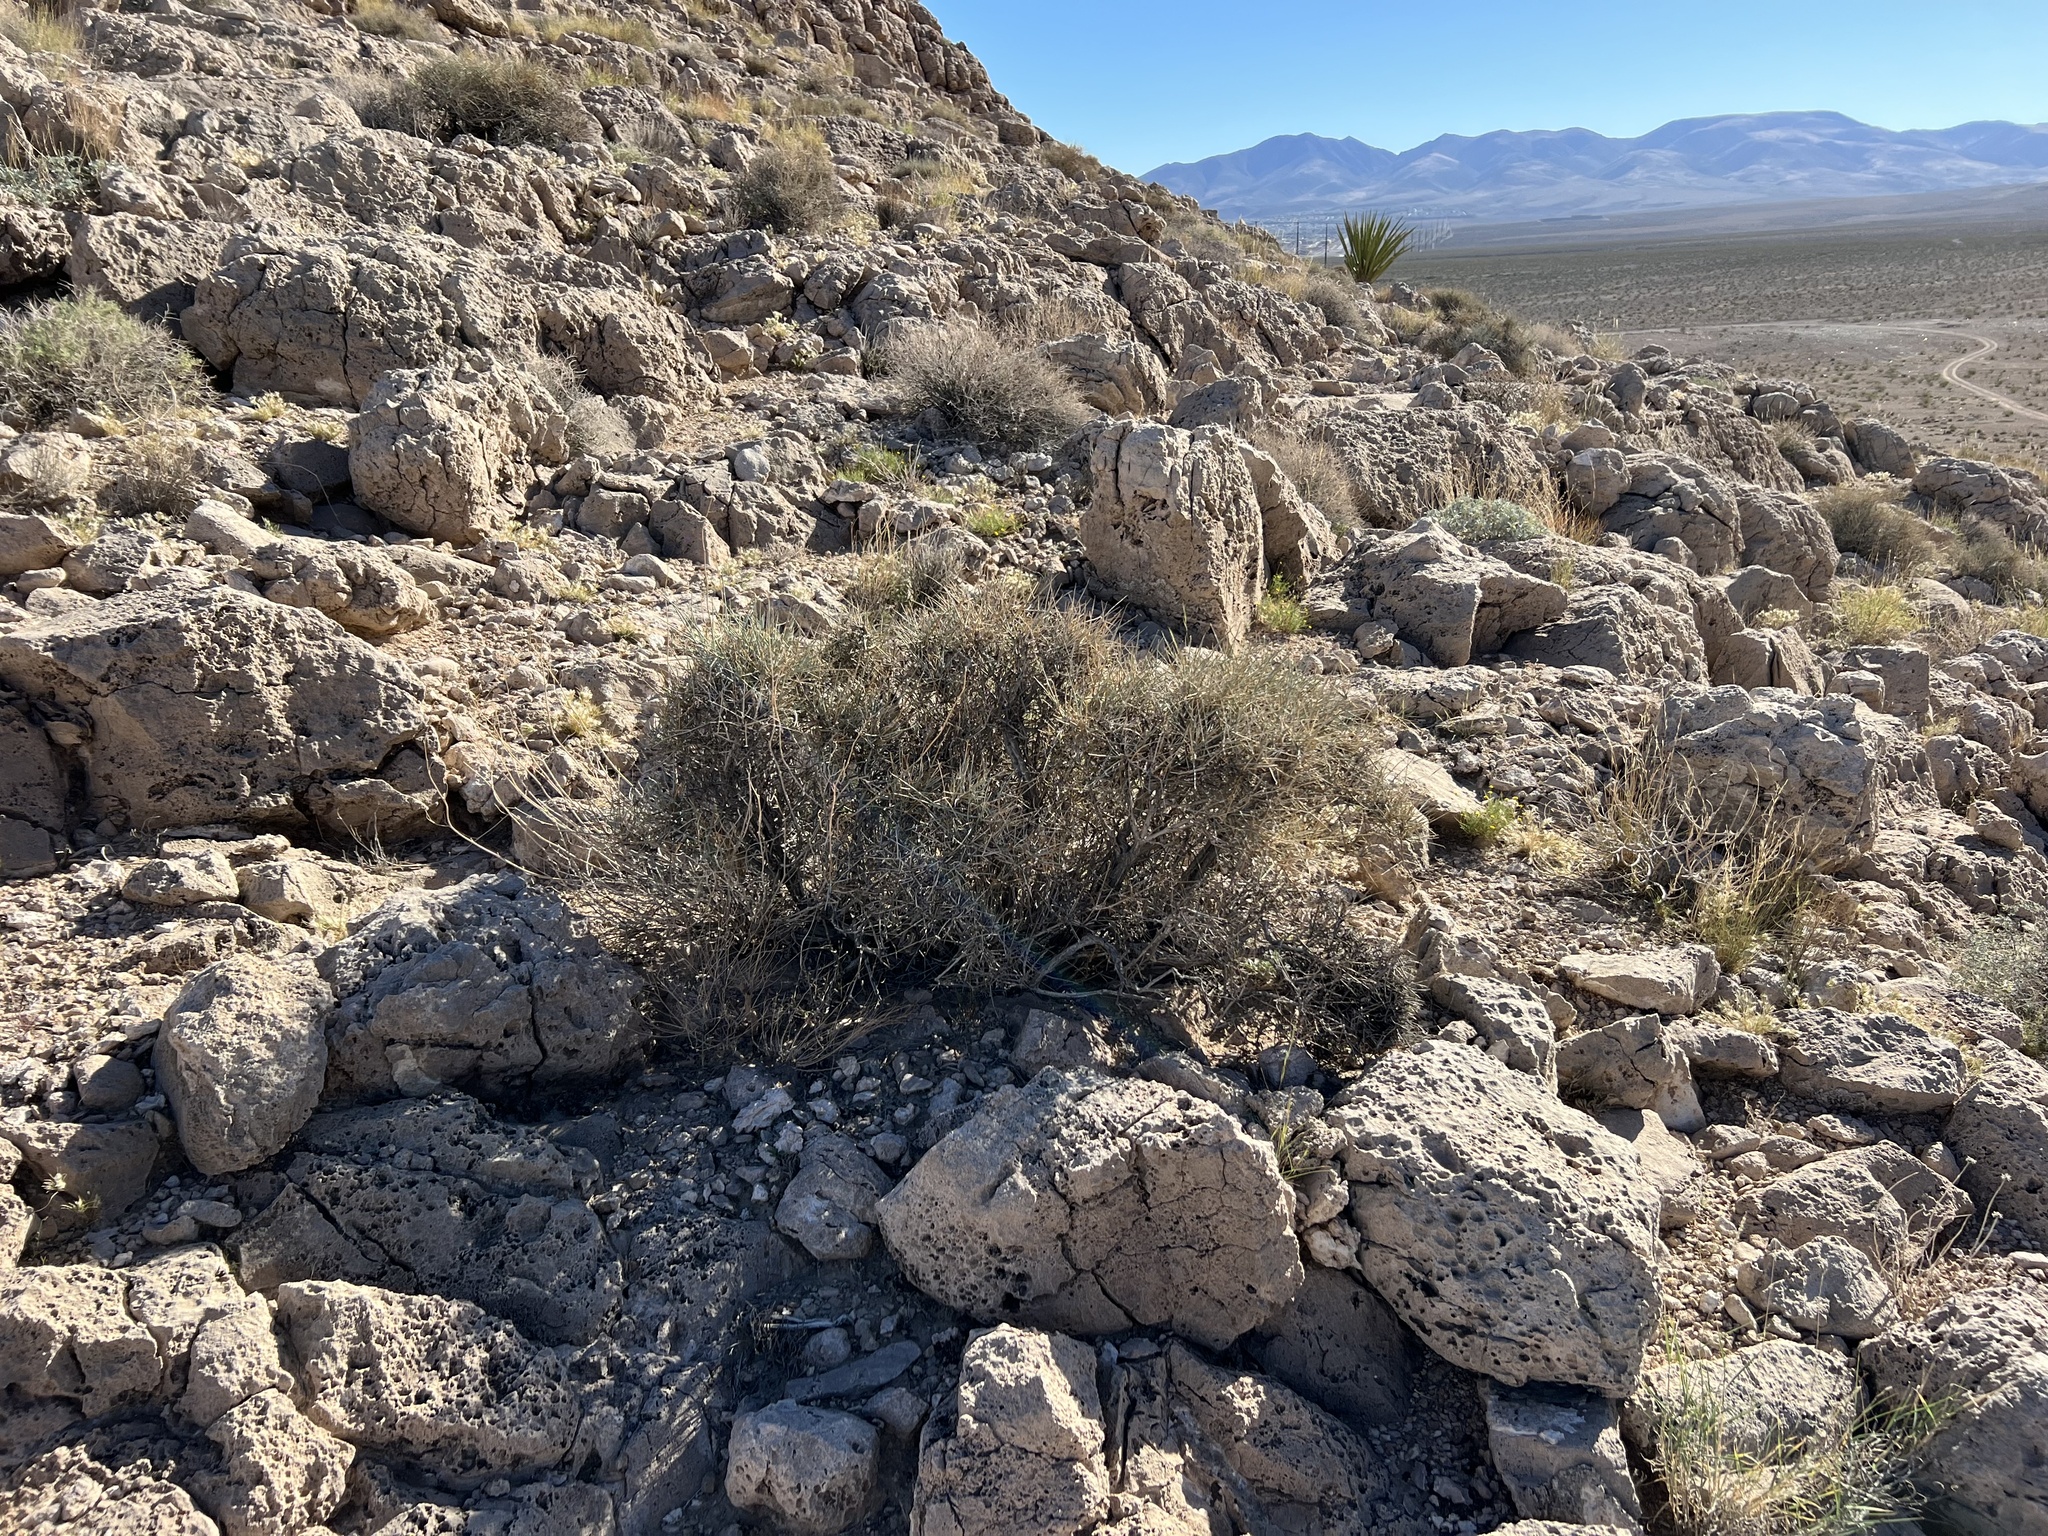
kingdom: Plantae
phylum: Tracheophyta
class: Gnetopsida
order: Ephedrales
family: Ephedraceae
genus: Ephedra
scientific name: Ephedra nevadensis
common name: Gray ephedra
